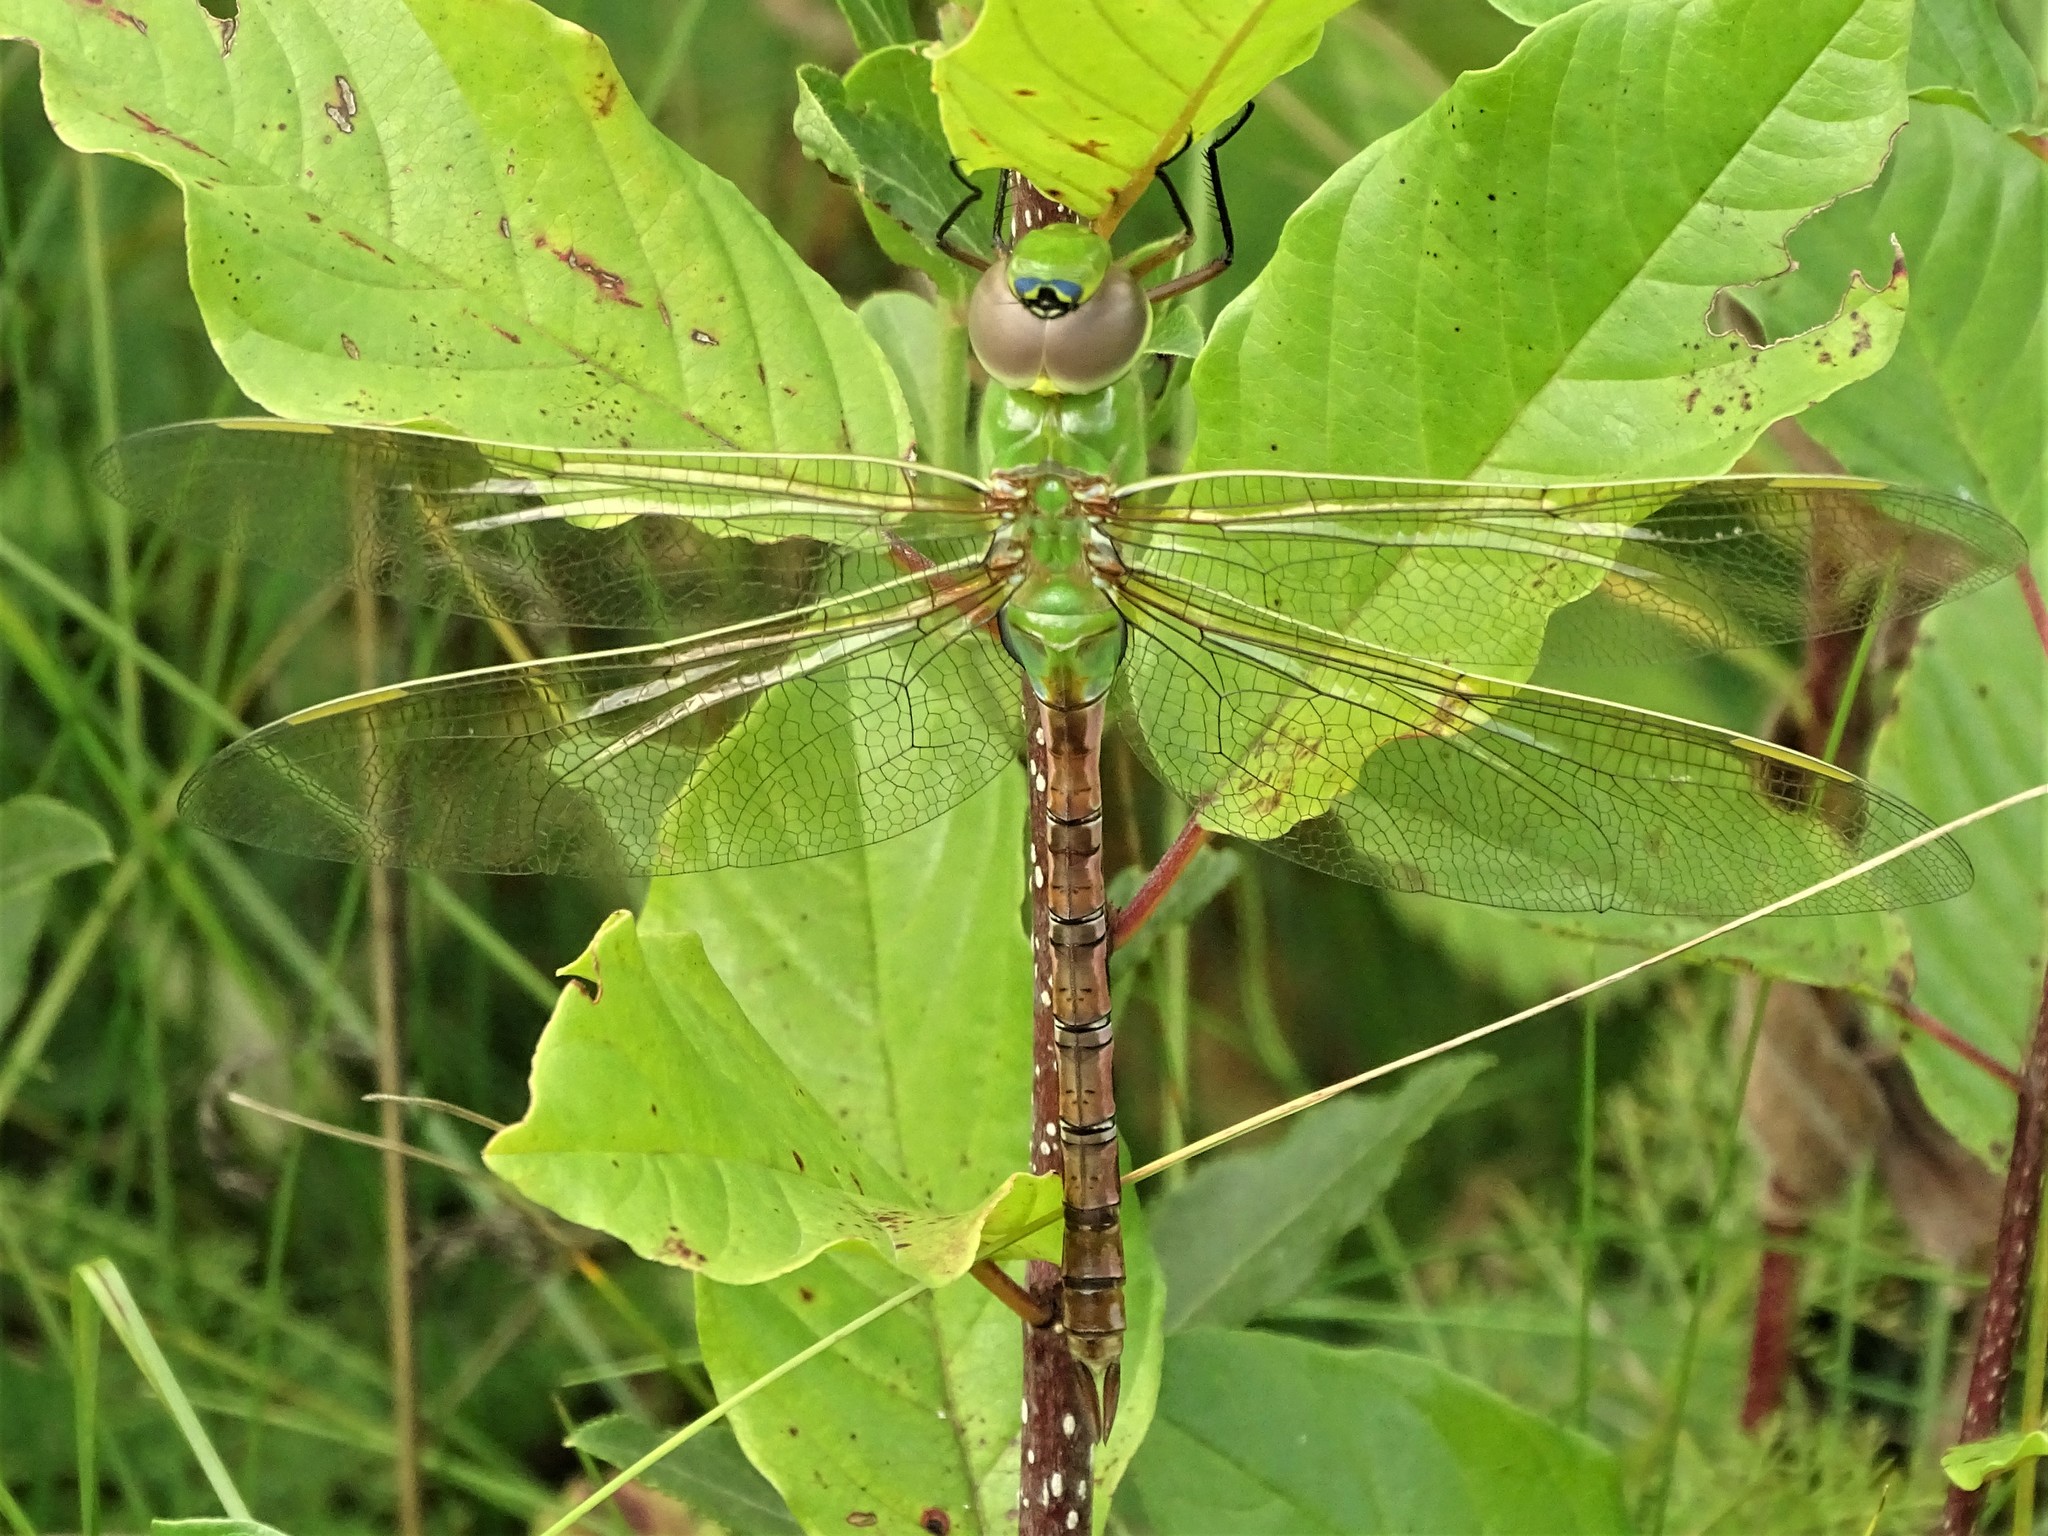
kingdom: Animalia
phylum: Arthropoda
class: Insecta
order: Odonata
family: Aeshnidae
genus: Anax
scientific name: Anax junius
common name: Common green darner
